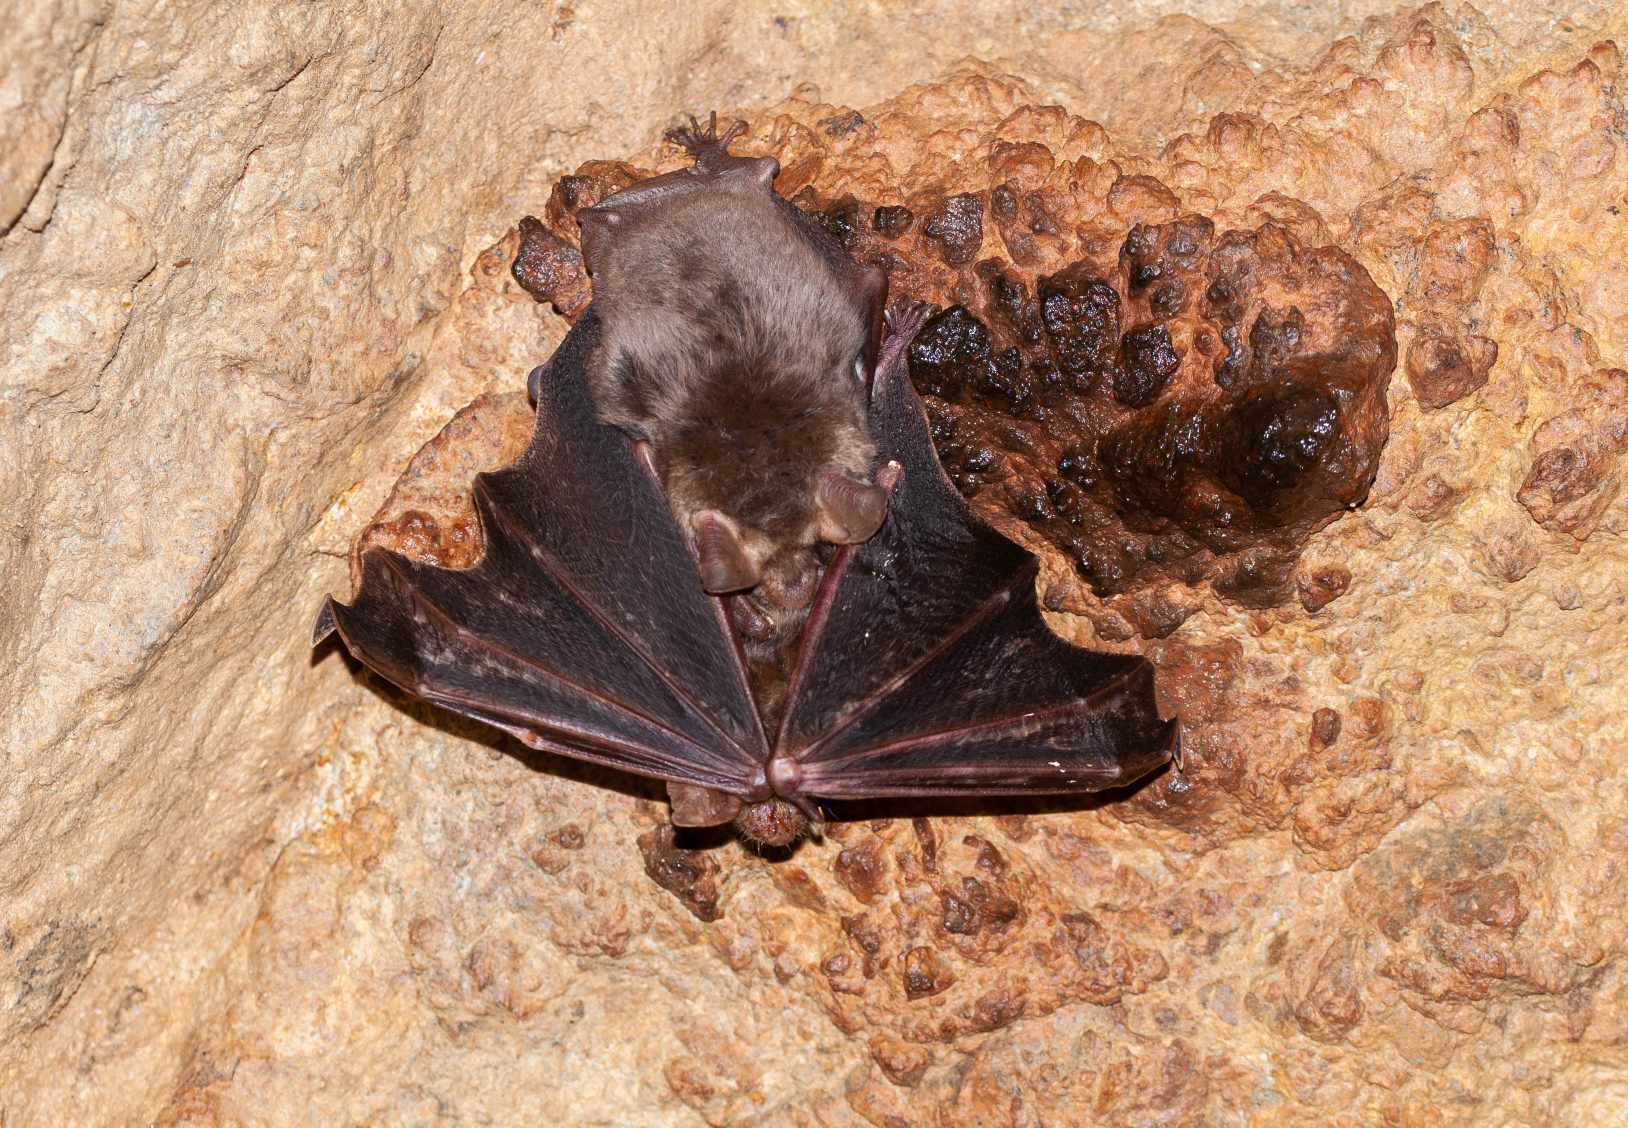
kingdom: Animalia
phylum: Chordata
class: Mammalia
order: Chiroptera
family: Vespertilionidae
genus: Myotis
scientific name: Myotis
